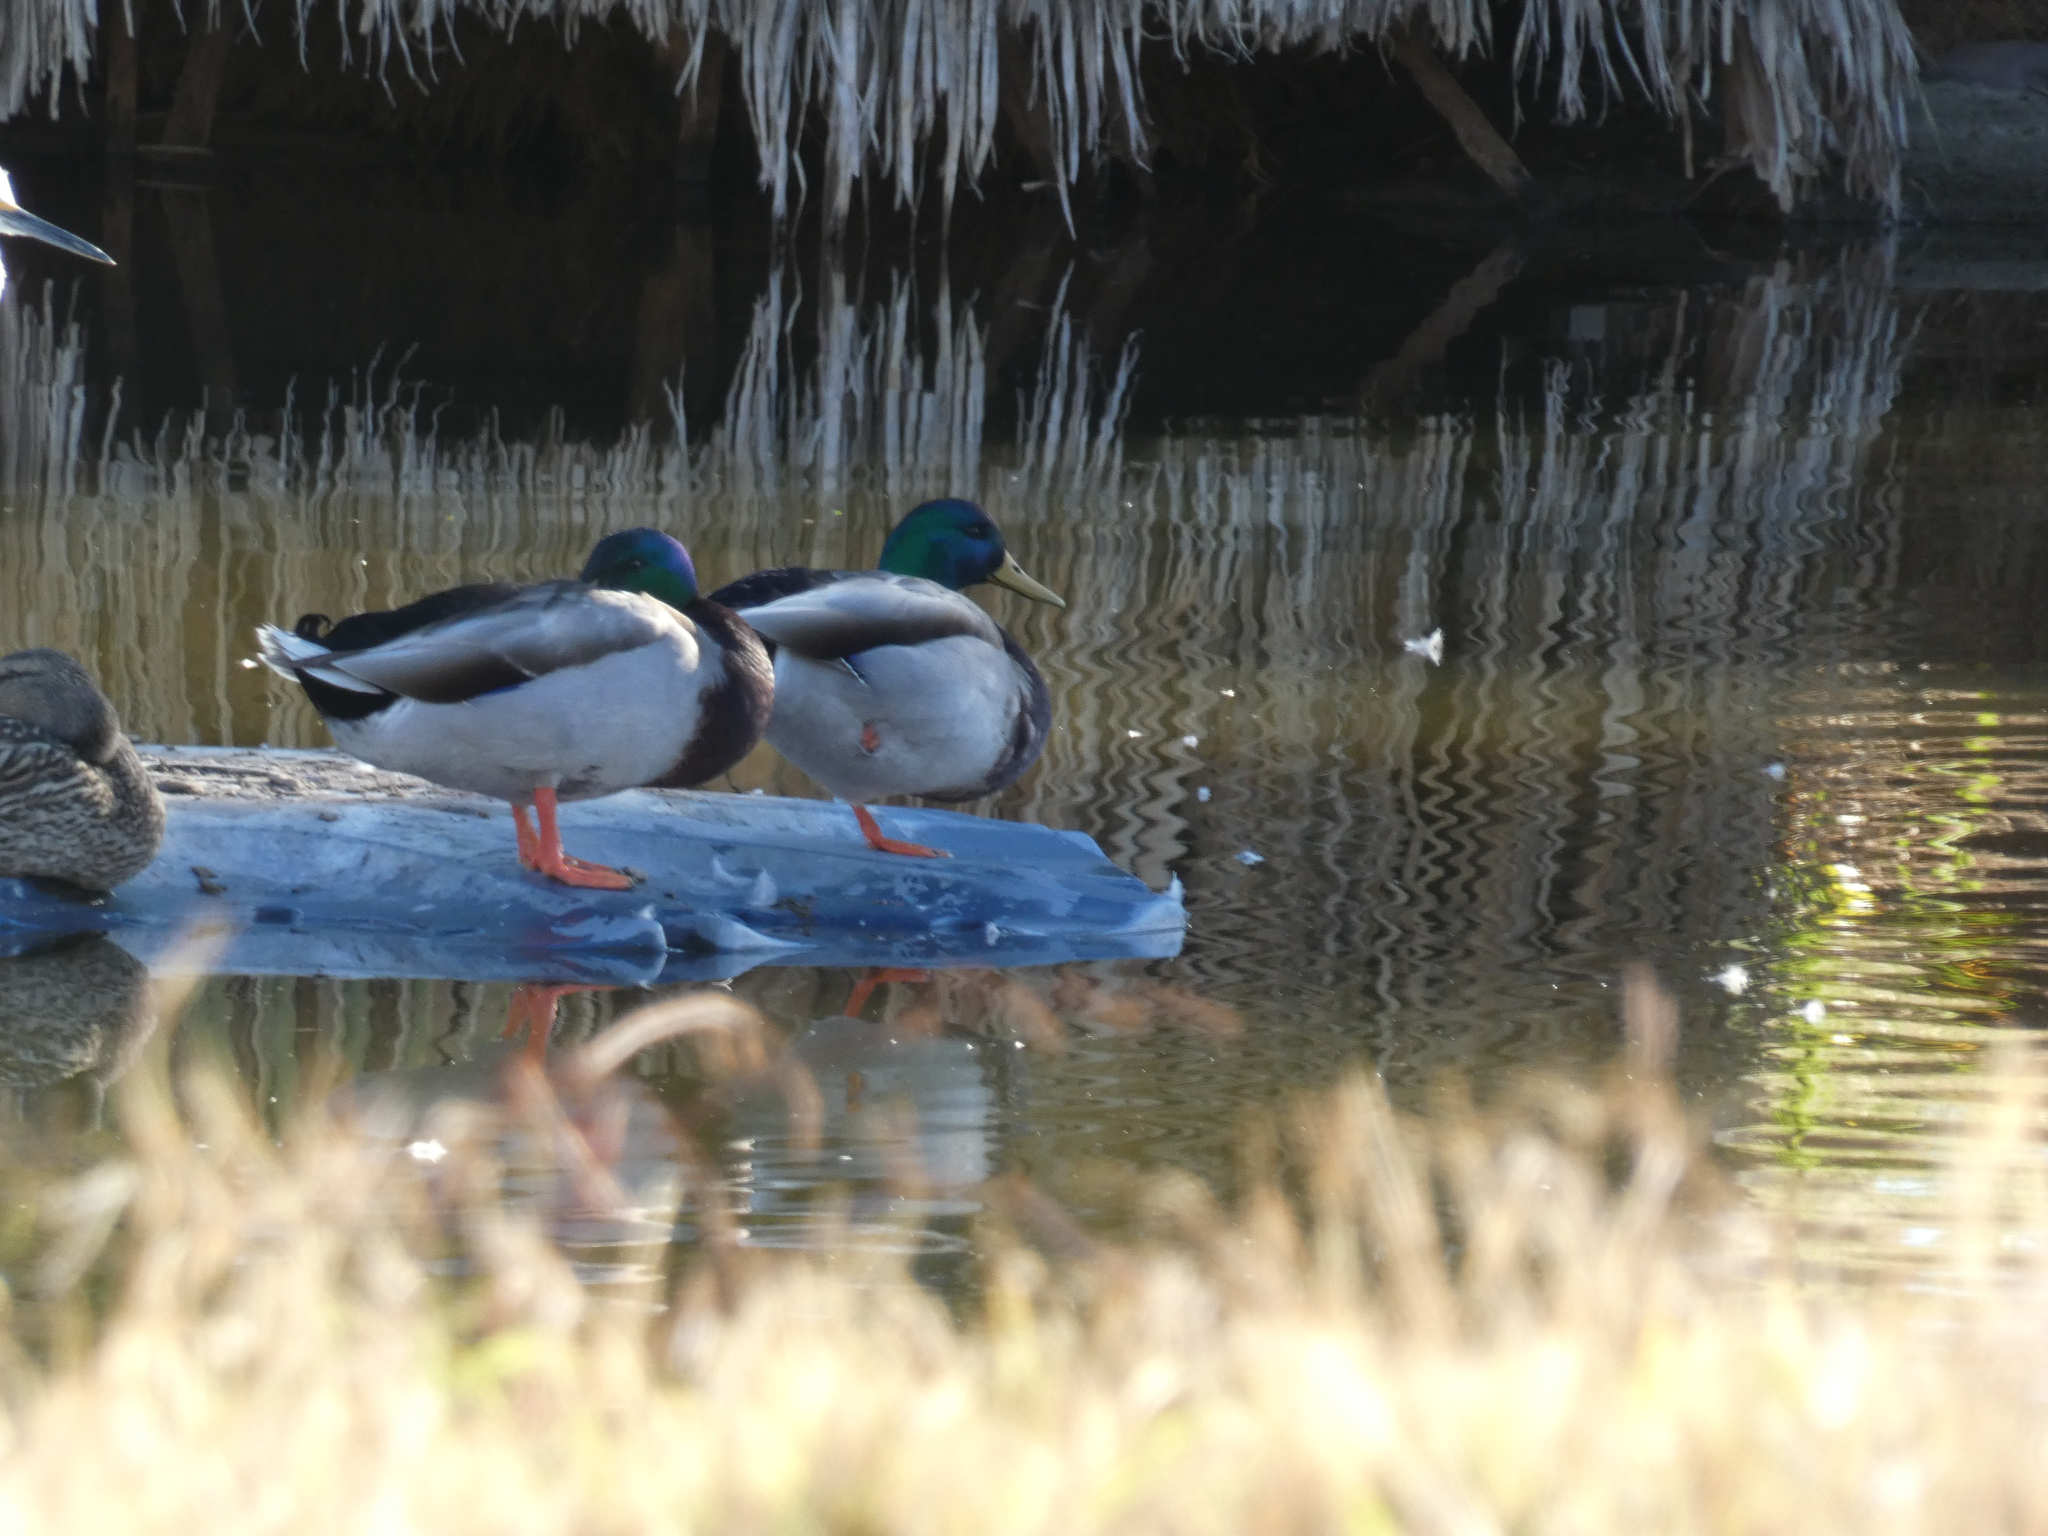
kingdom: Animalia
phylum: Chordata
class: Aves
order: Anseriformes
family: Anatidae
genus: Anas
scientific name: Anas platyrhynchos
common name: Mallard
